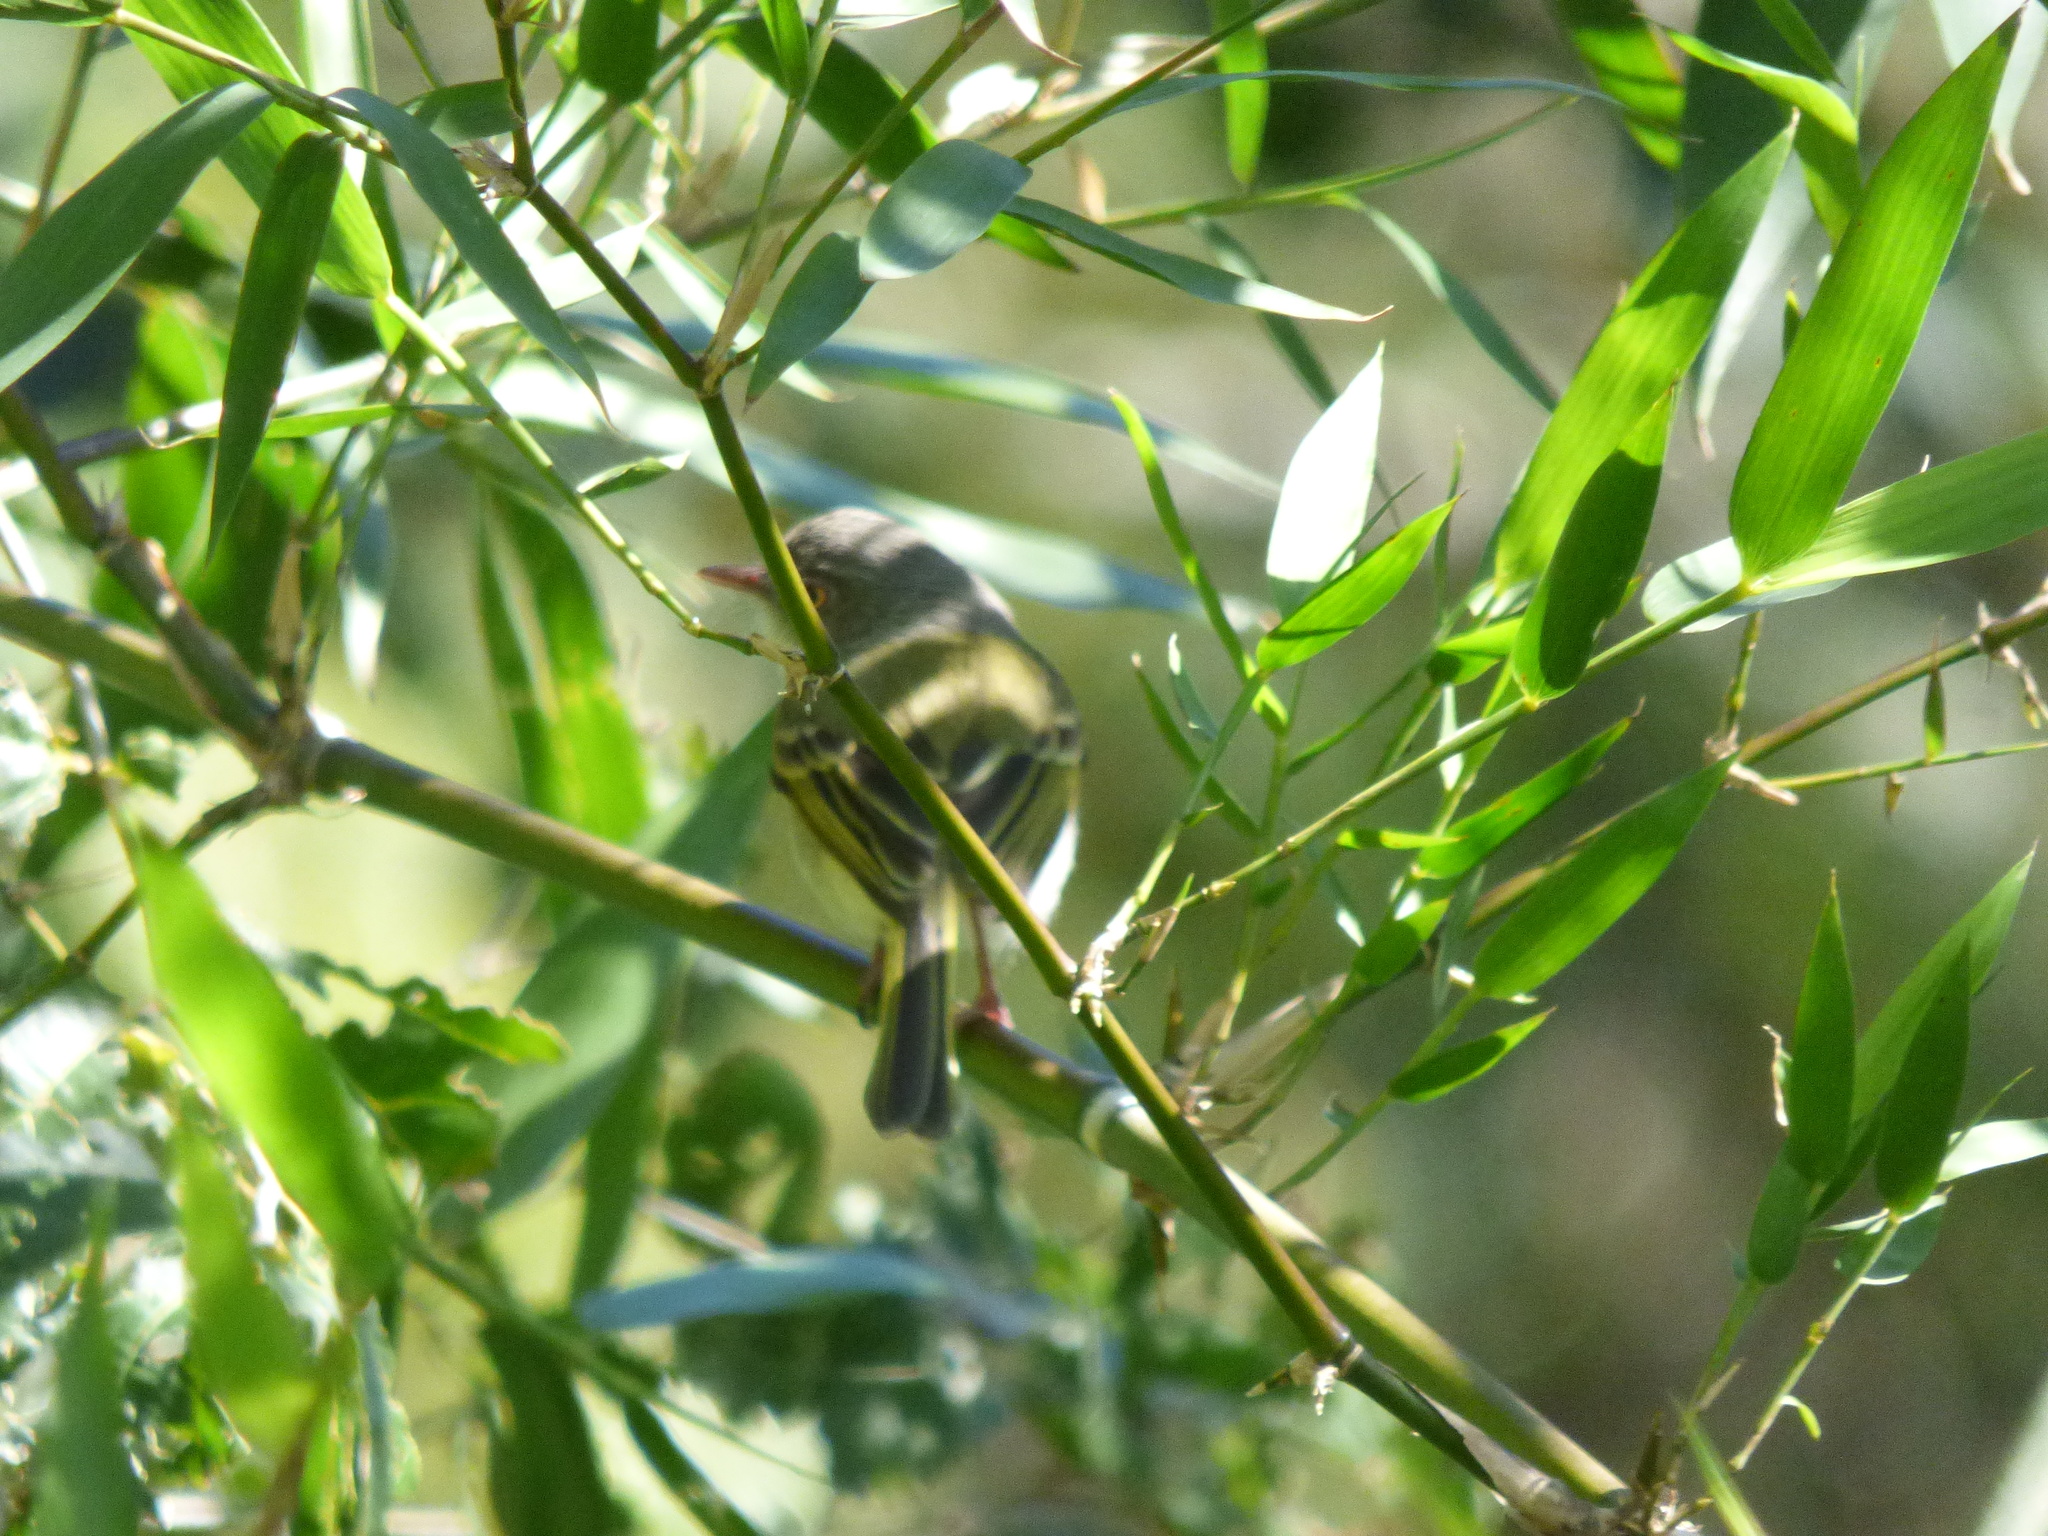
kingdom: Animalia
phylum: Chordata
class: Aves
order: Passeriformes
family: Tyrannidae
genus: Hemitriccus
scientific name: Hemitriccus margaritaceiventer
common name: Pearly-vented tody-tyrant
